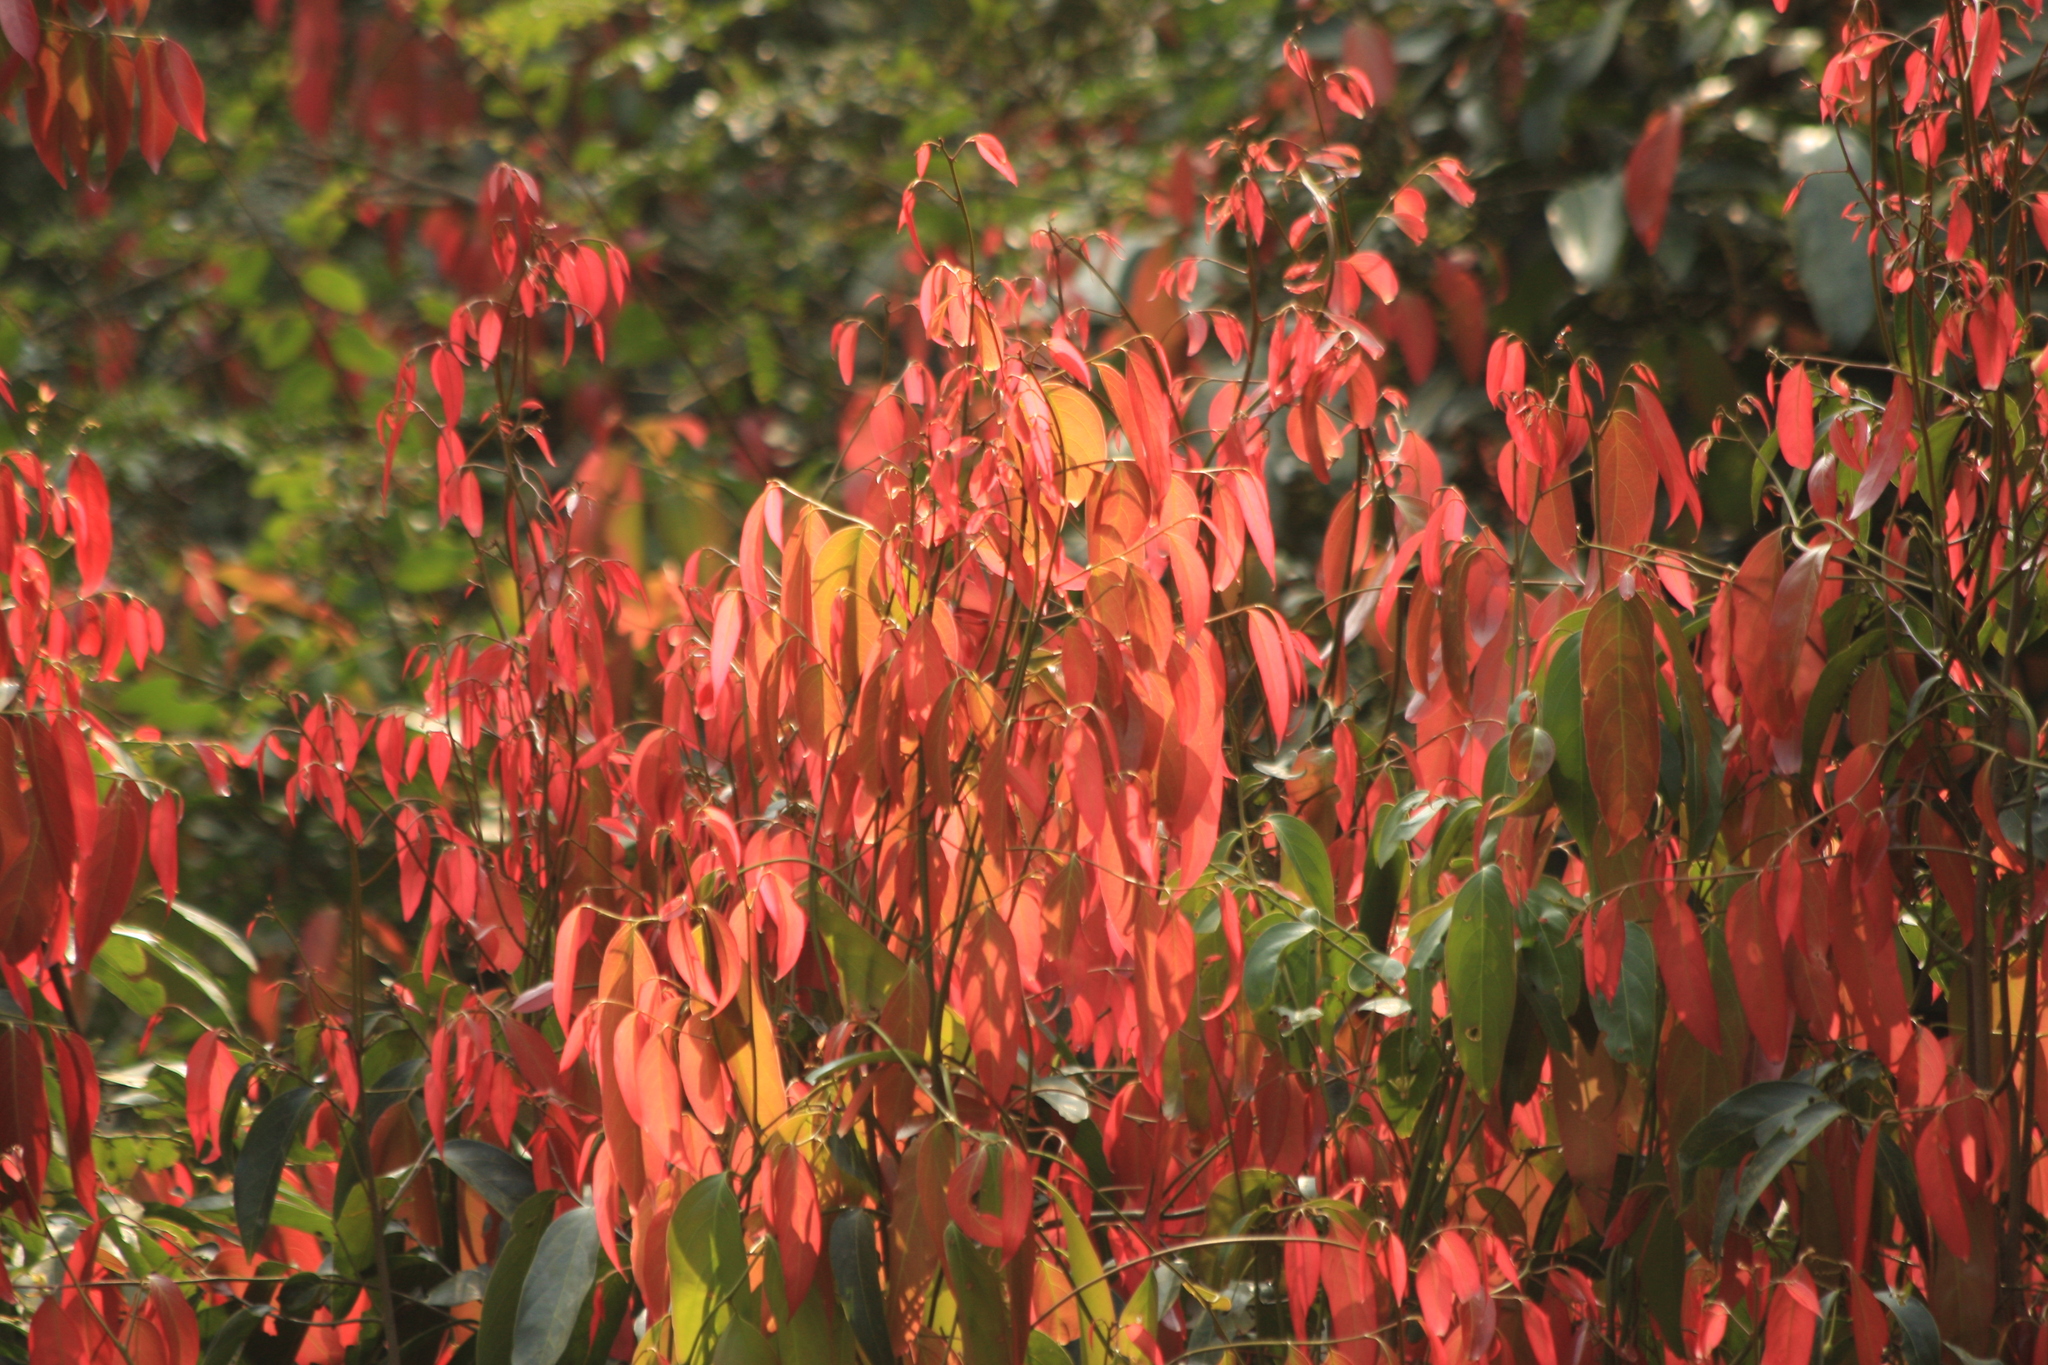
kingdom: Plantae
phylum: Tracheophyta
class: Magnoliopsida
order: Malpighiales
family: Achariaceae
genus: Hydnocarpus
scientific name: Hydnocarpus pentandrus
